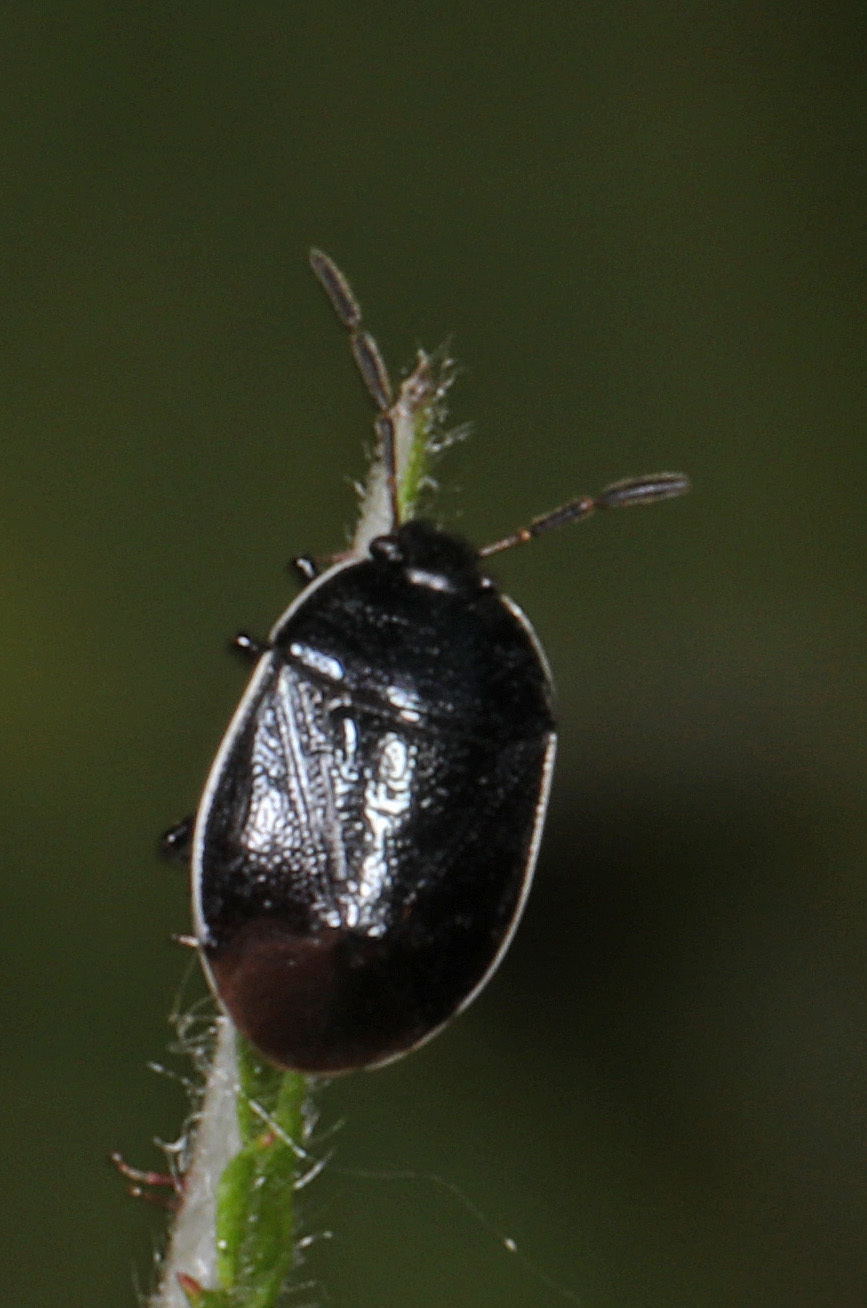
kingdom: Animalia
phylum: Arthropoda
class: Insecta
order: Hemiptera
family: Cydnidae
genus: Sehirus
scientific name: Sehirus cinctus
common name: White-margined burrower bug
